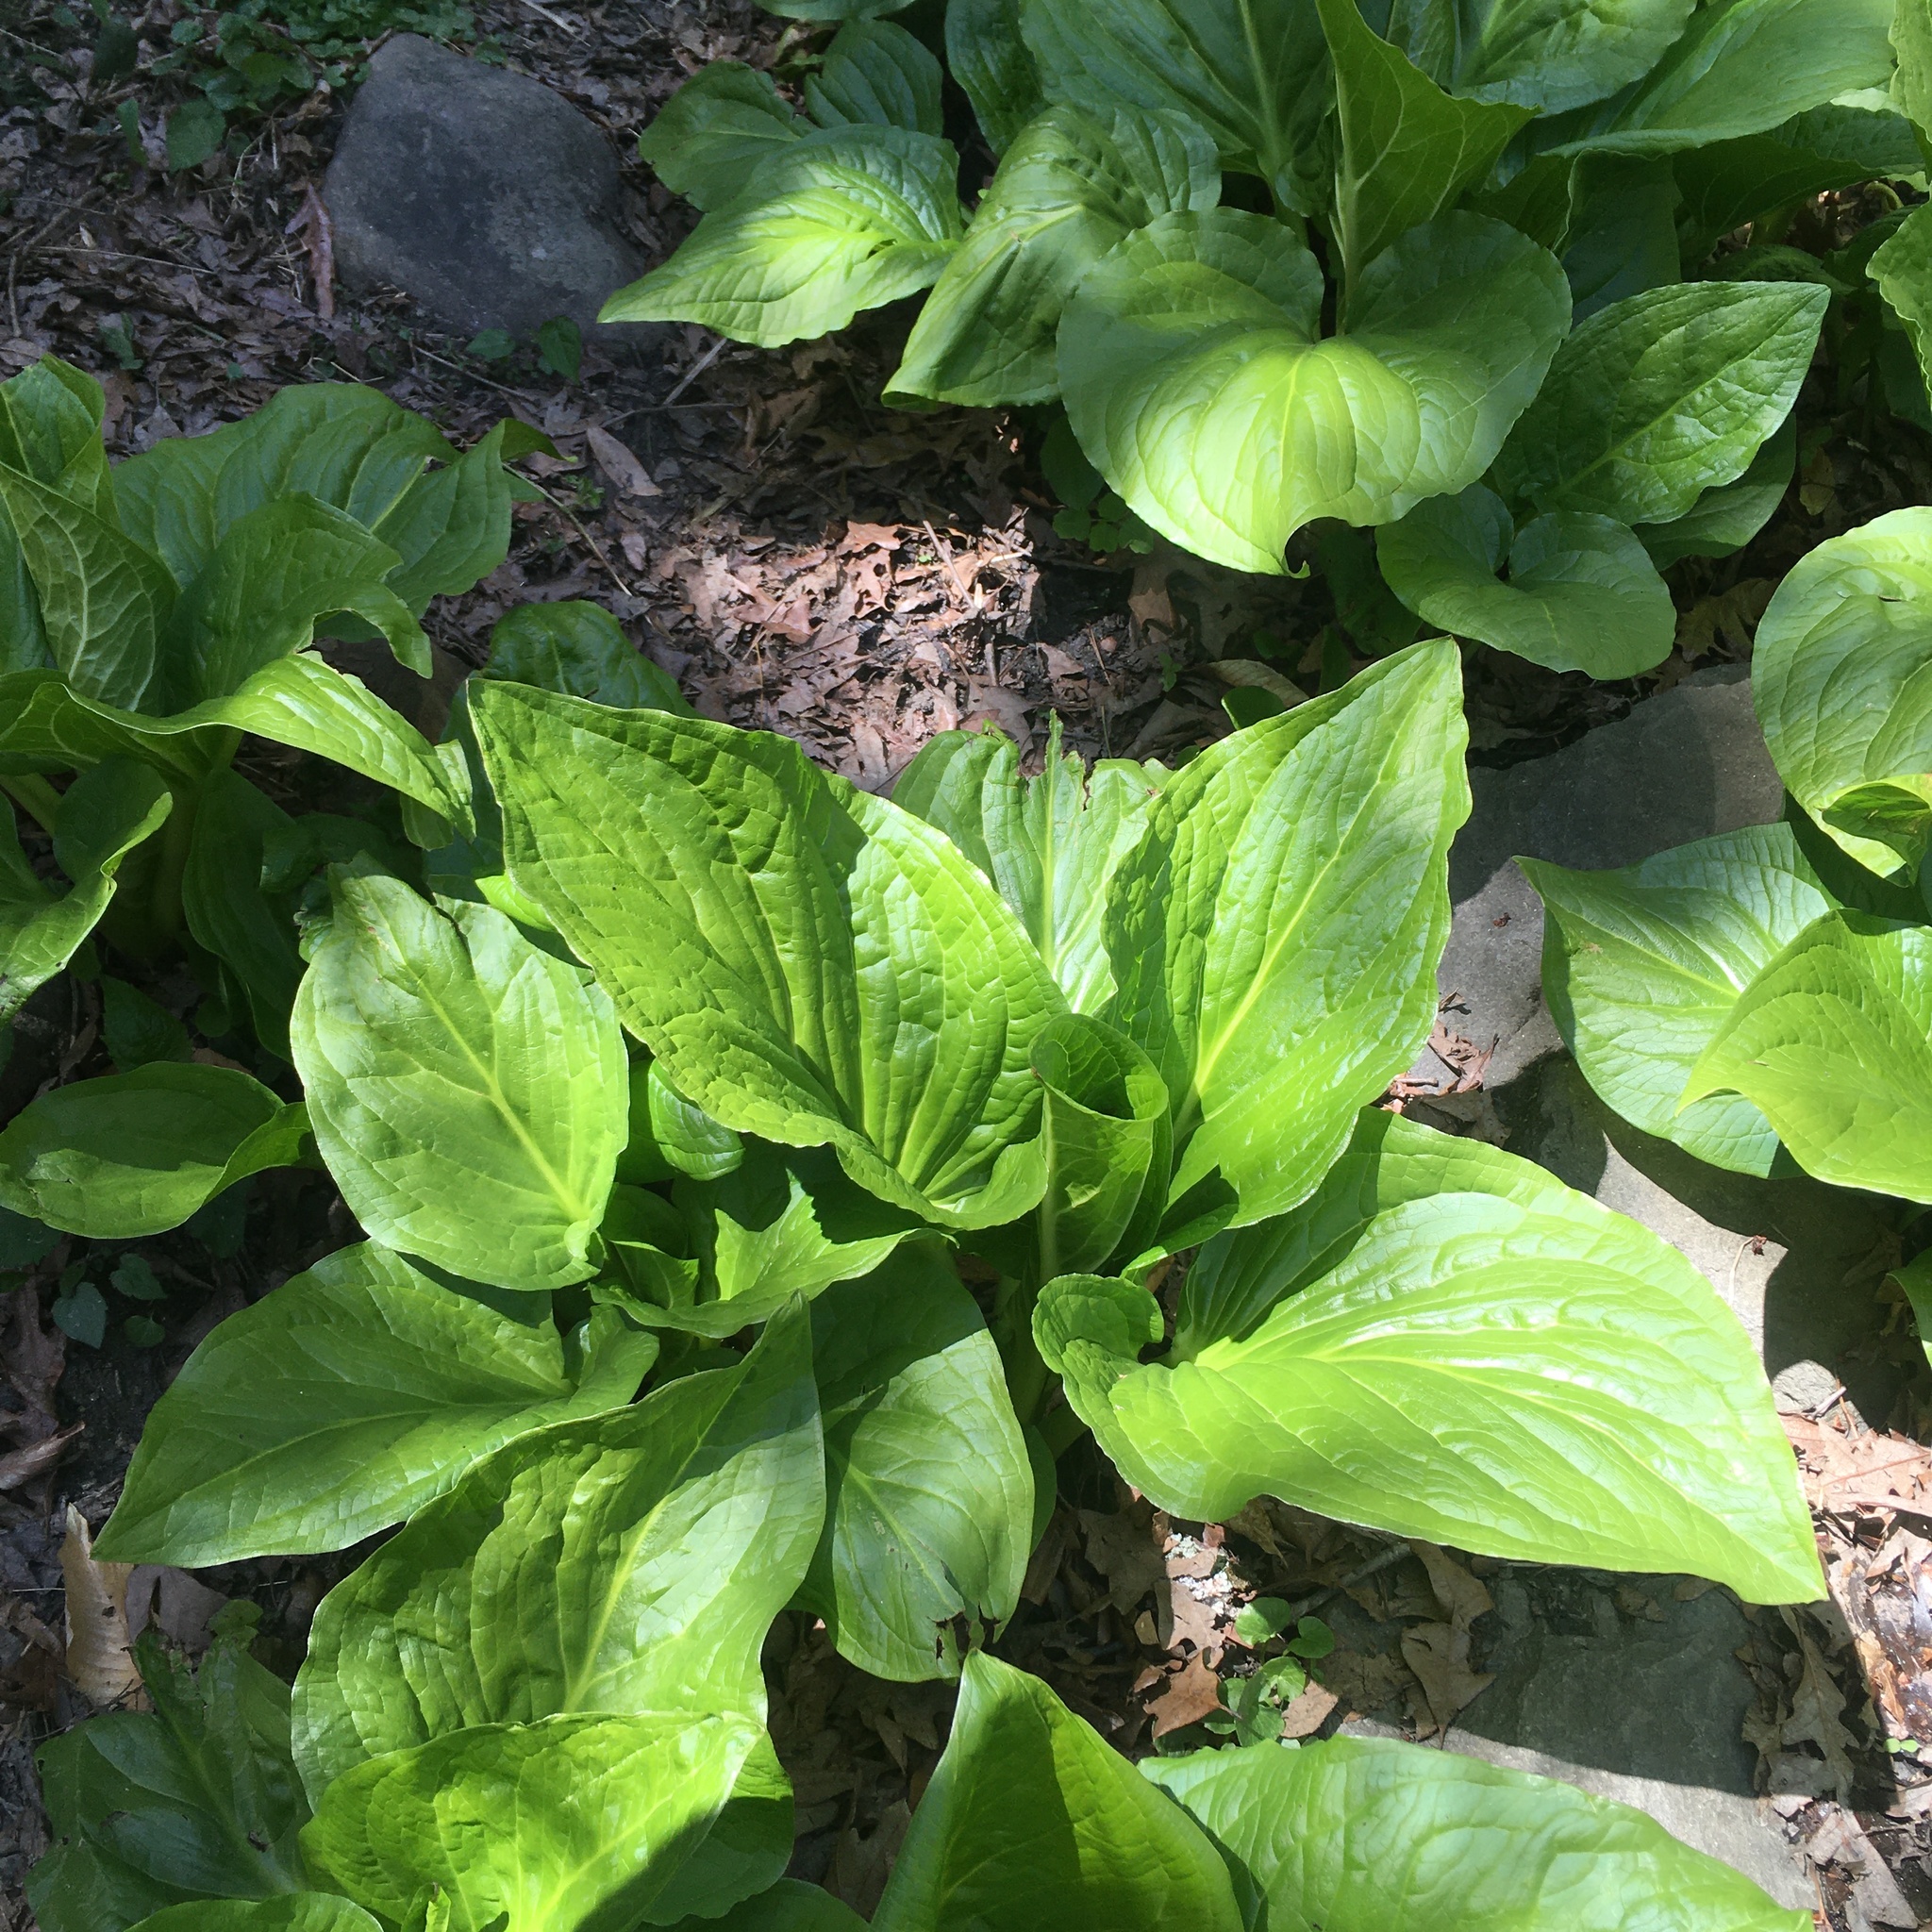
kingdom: Plantae
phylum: Tracheophyta
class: Liliopsida
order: Alismatales
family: Araceae
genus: Symplocarpus
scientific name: Symplocarpus foetidus
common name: Eastern skunk cabbage
